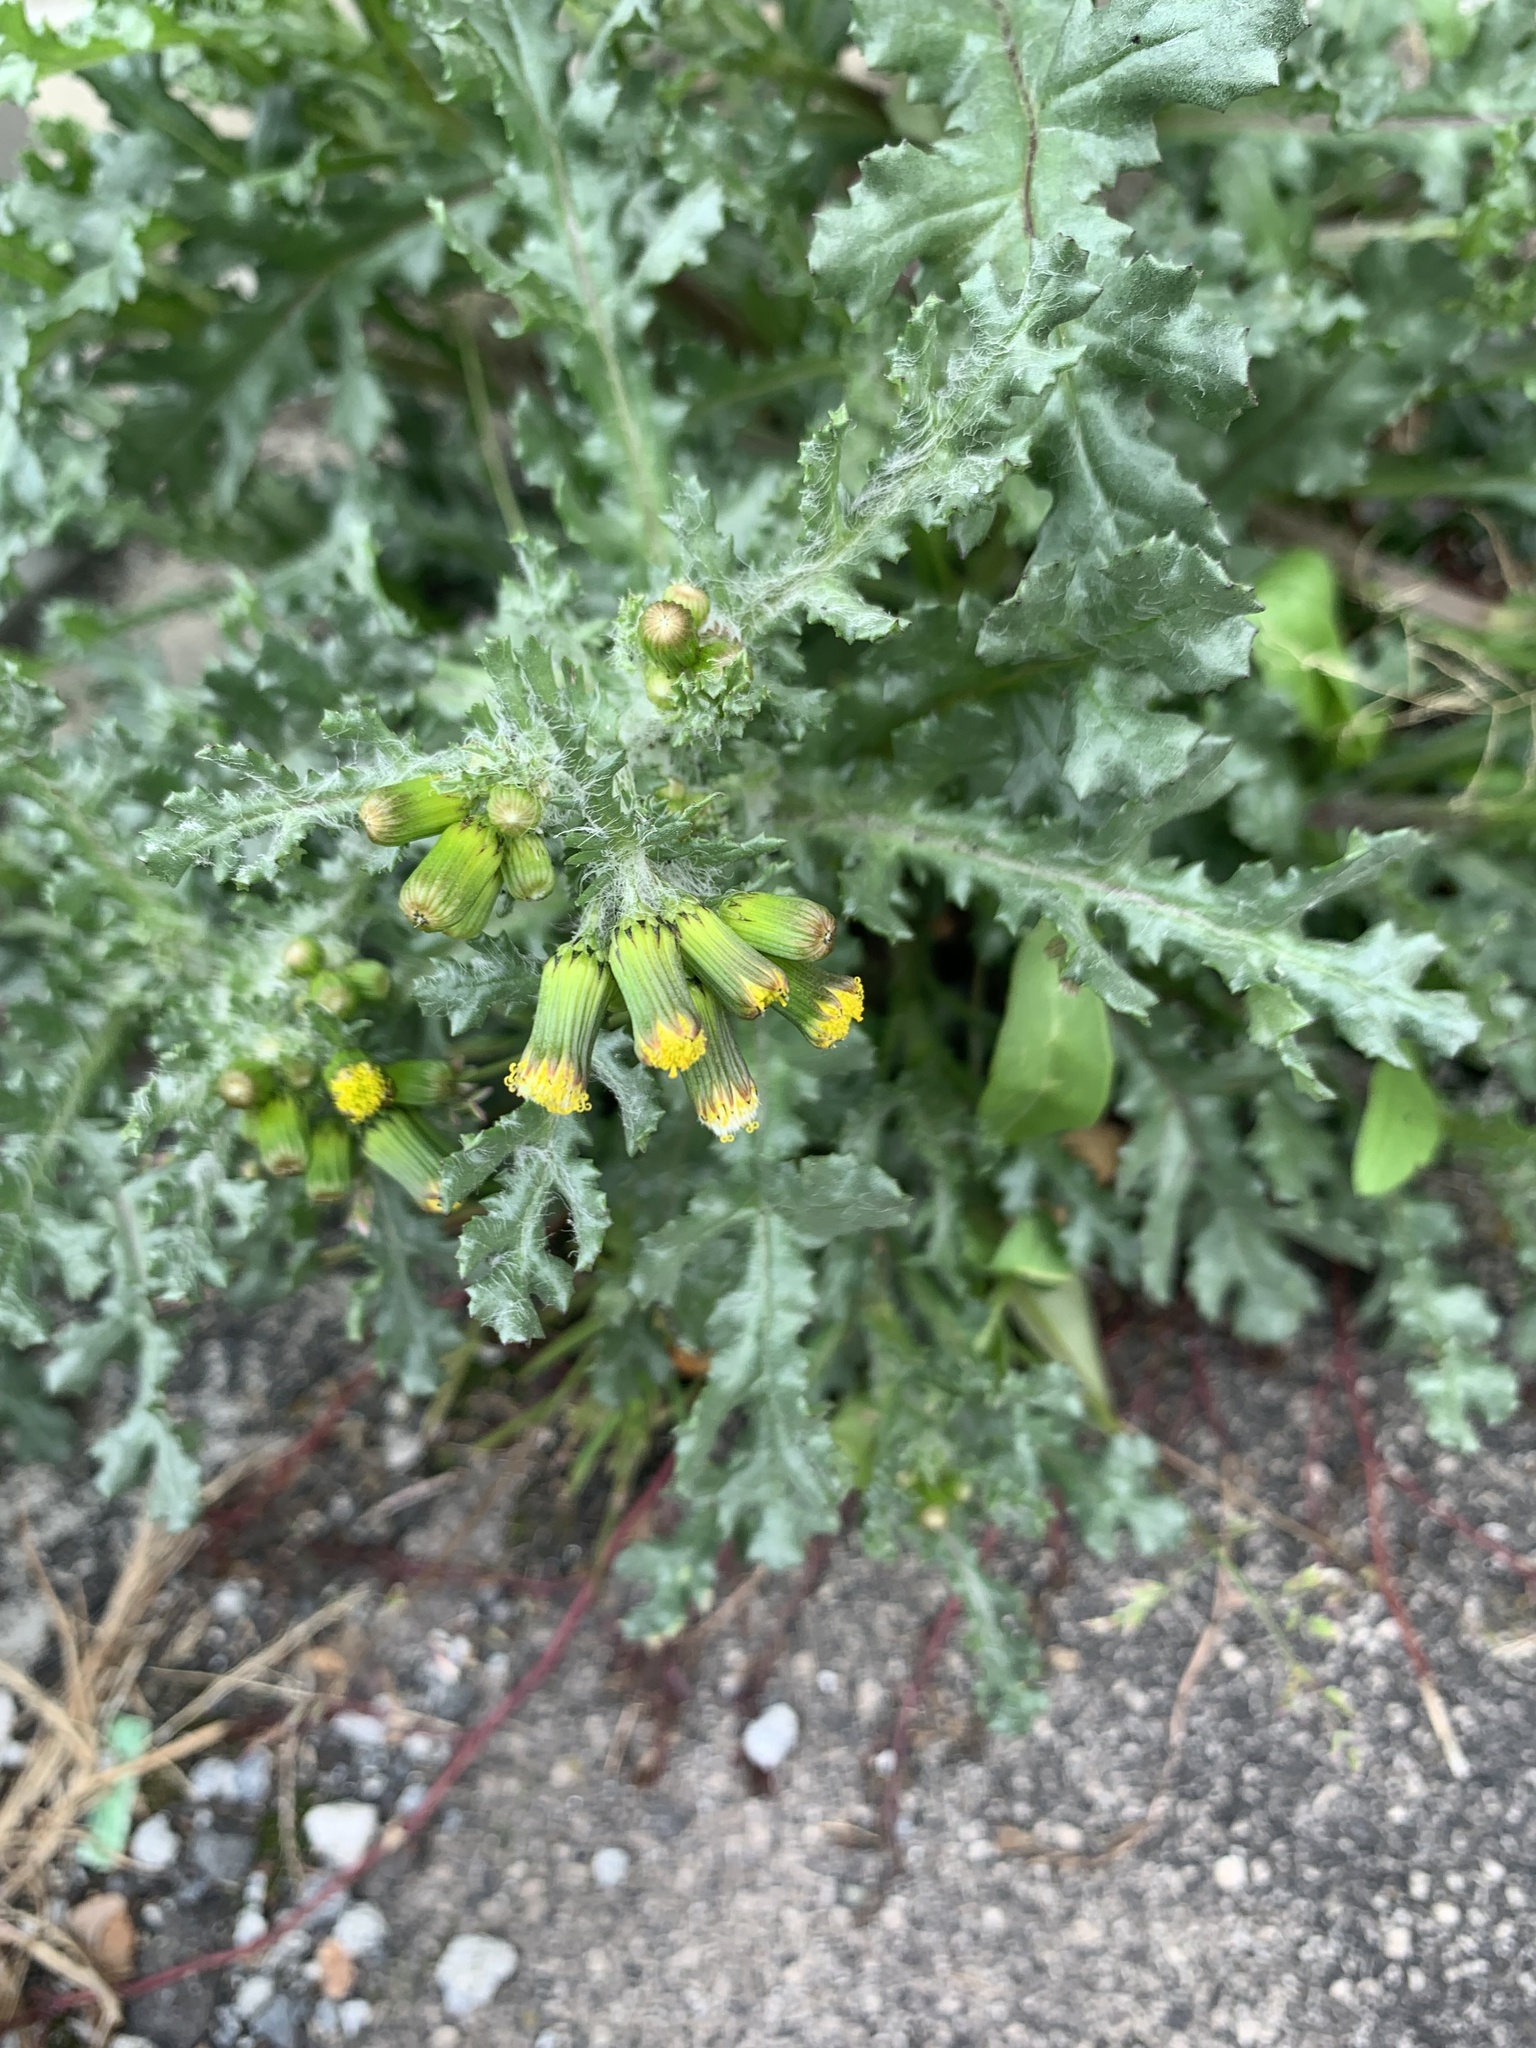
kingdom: Plantae
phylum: Tracheophyta
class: Magnoliopsida
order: Asterales
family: Asteraceae
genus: Senecio
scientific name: Senecio vulgaris
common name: Old-man-in-the-spring
